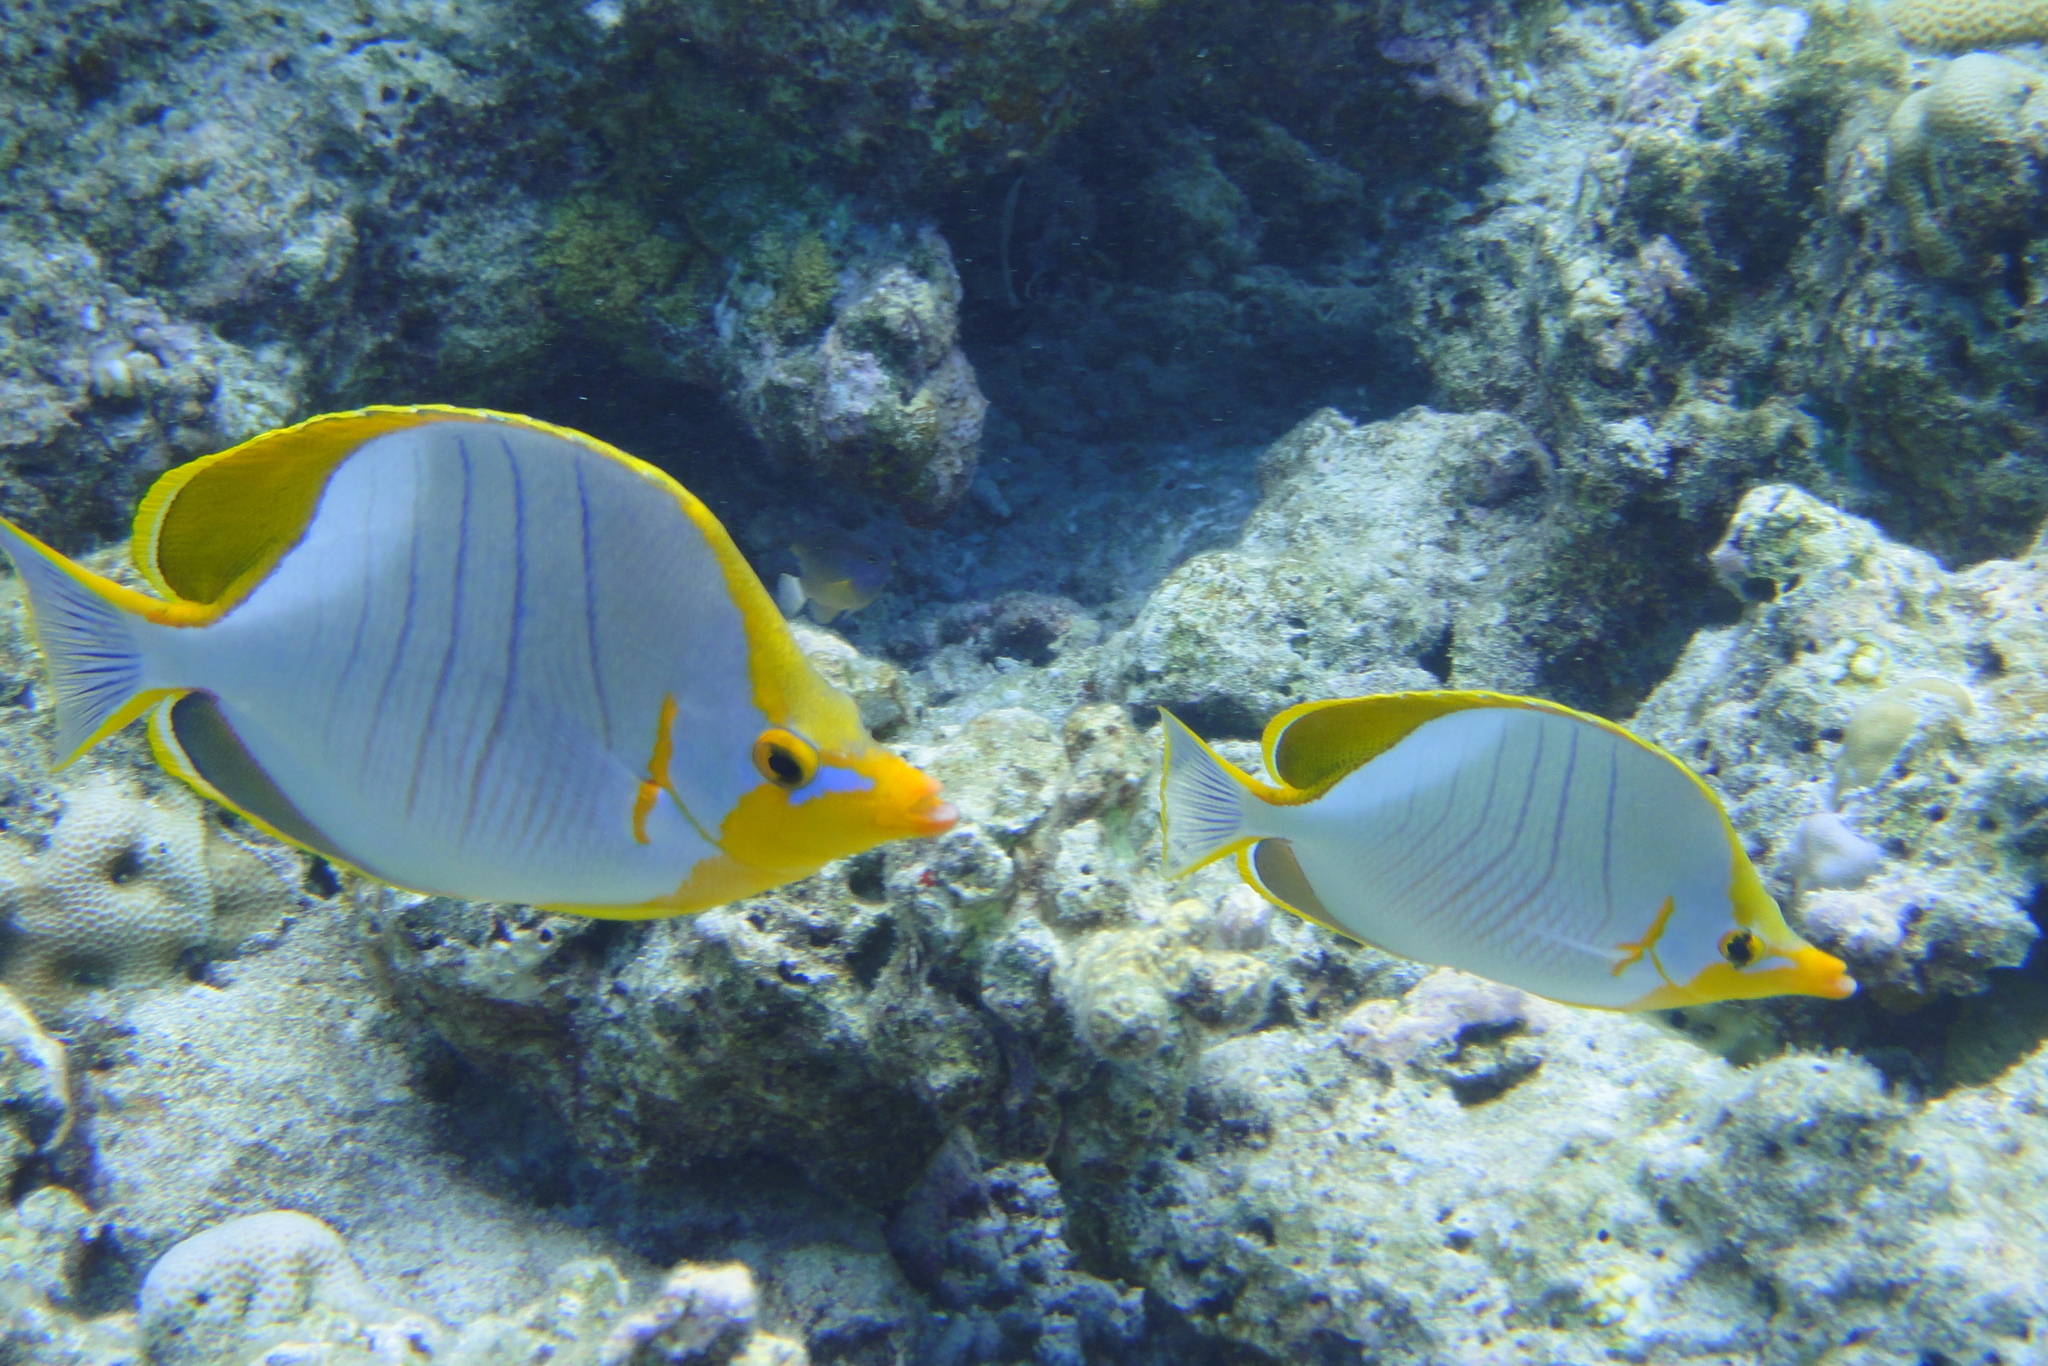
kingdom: Animalia
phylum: Chordata
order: Perciformes
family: Chaetodontidae
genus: Chaetodon
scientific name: Chaetodon xanthocephalus
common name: Yellowhead butterflyfish
